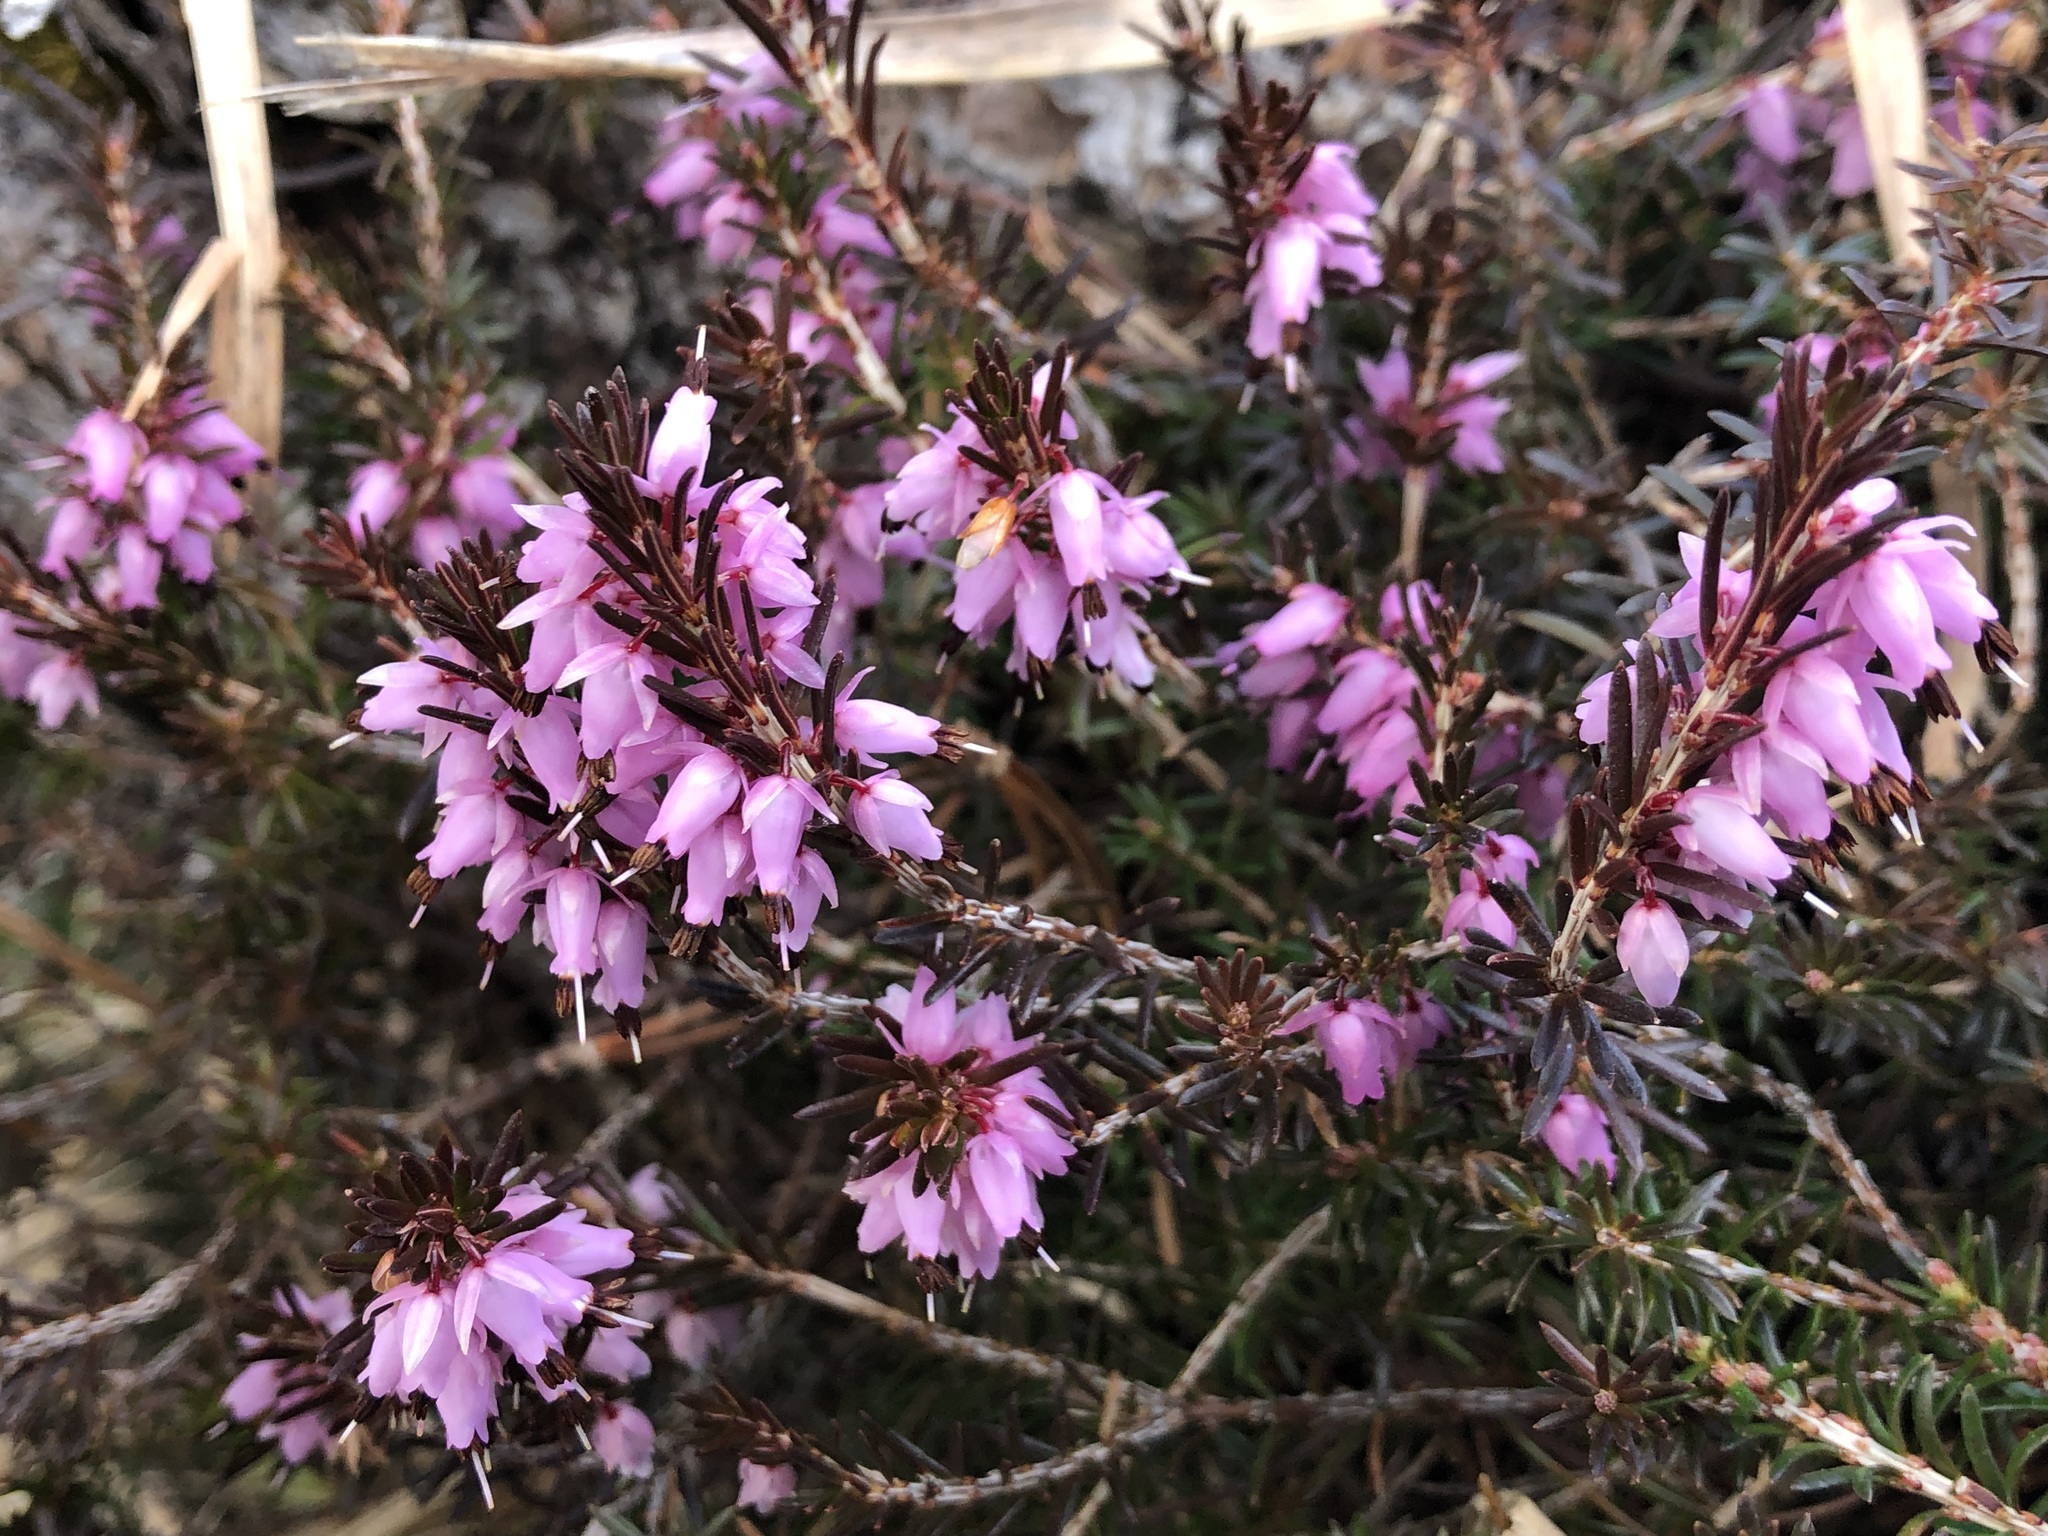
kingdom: Plantae
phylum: Tracheophyta
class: Magnoliopsida
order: Ericales
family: Ericaceae
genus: Erica
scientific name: Erica carnea
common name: Winter heath
